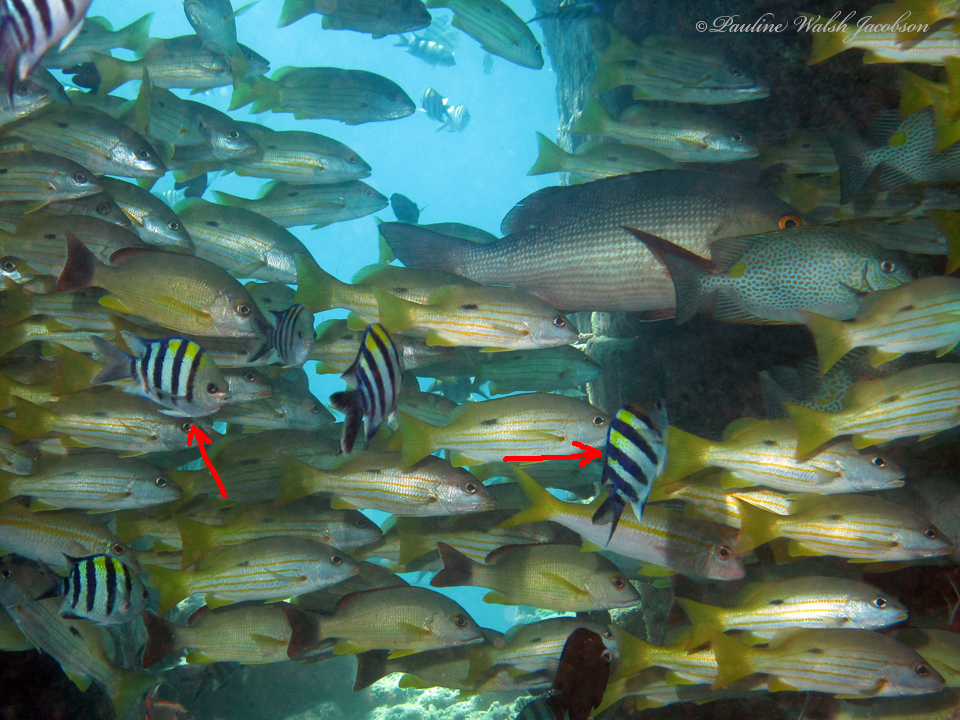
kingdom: Animalia
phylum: Chordata
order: Perciformes
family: Pomacentridae
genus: Abudefduf
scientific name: Abudefduf vaigiensis
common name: Indo-pacific sergeant
